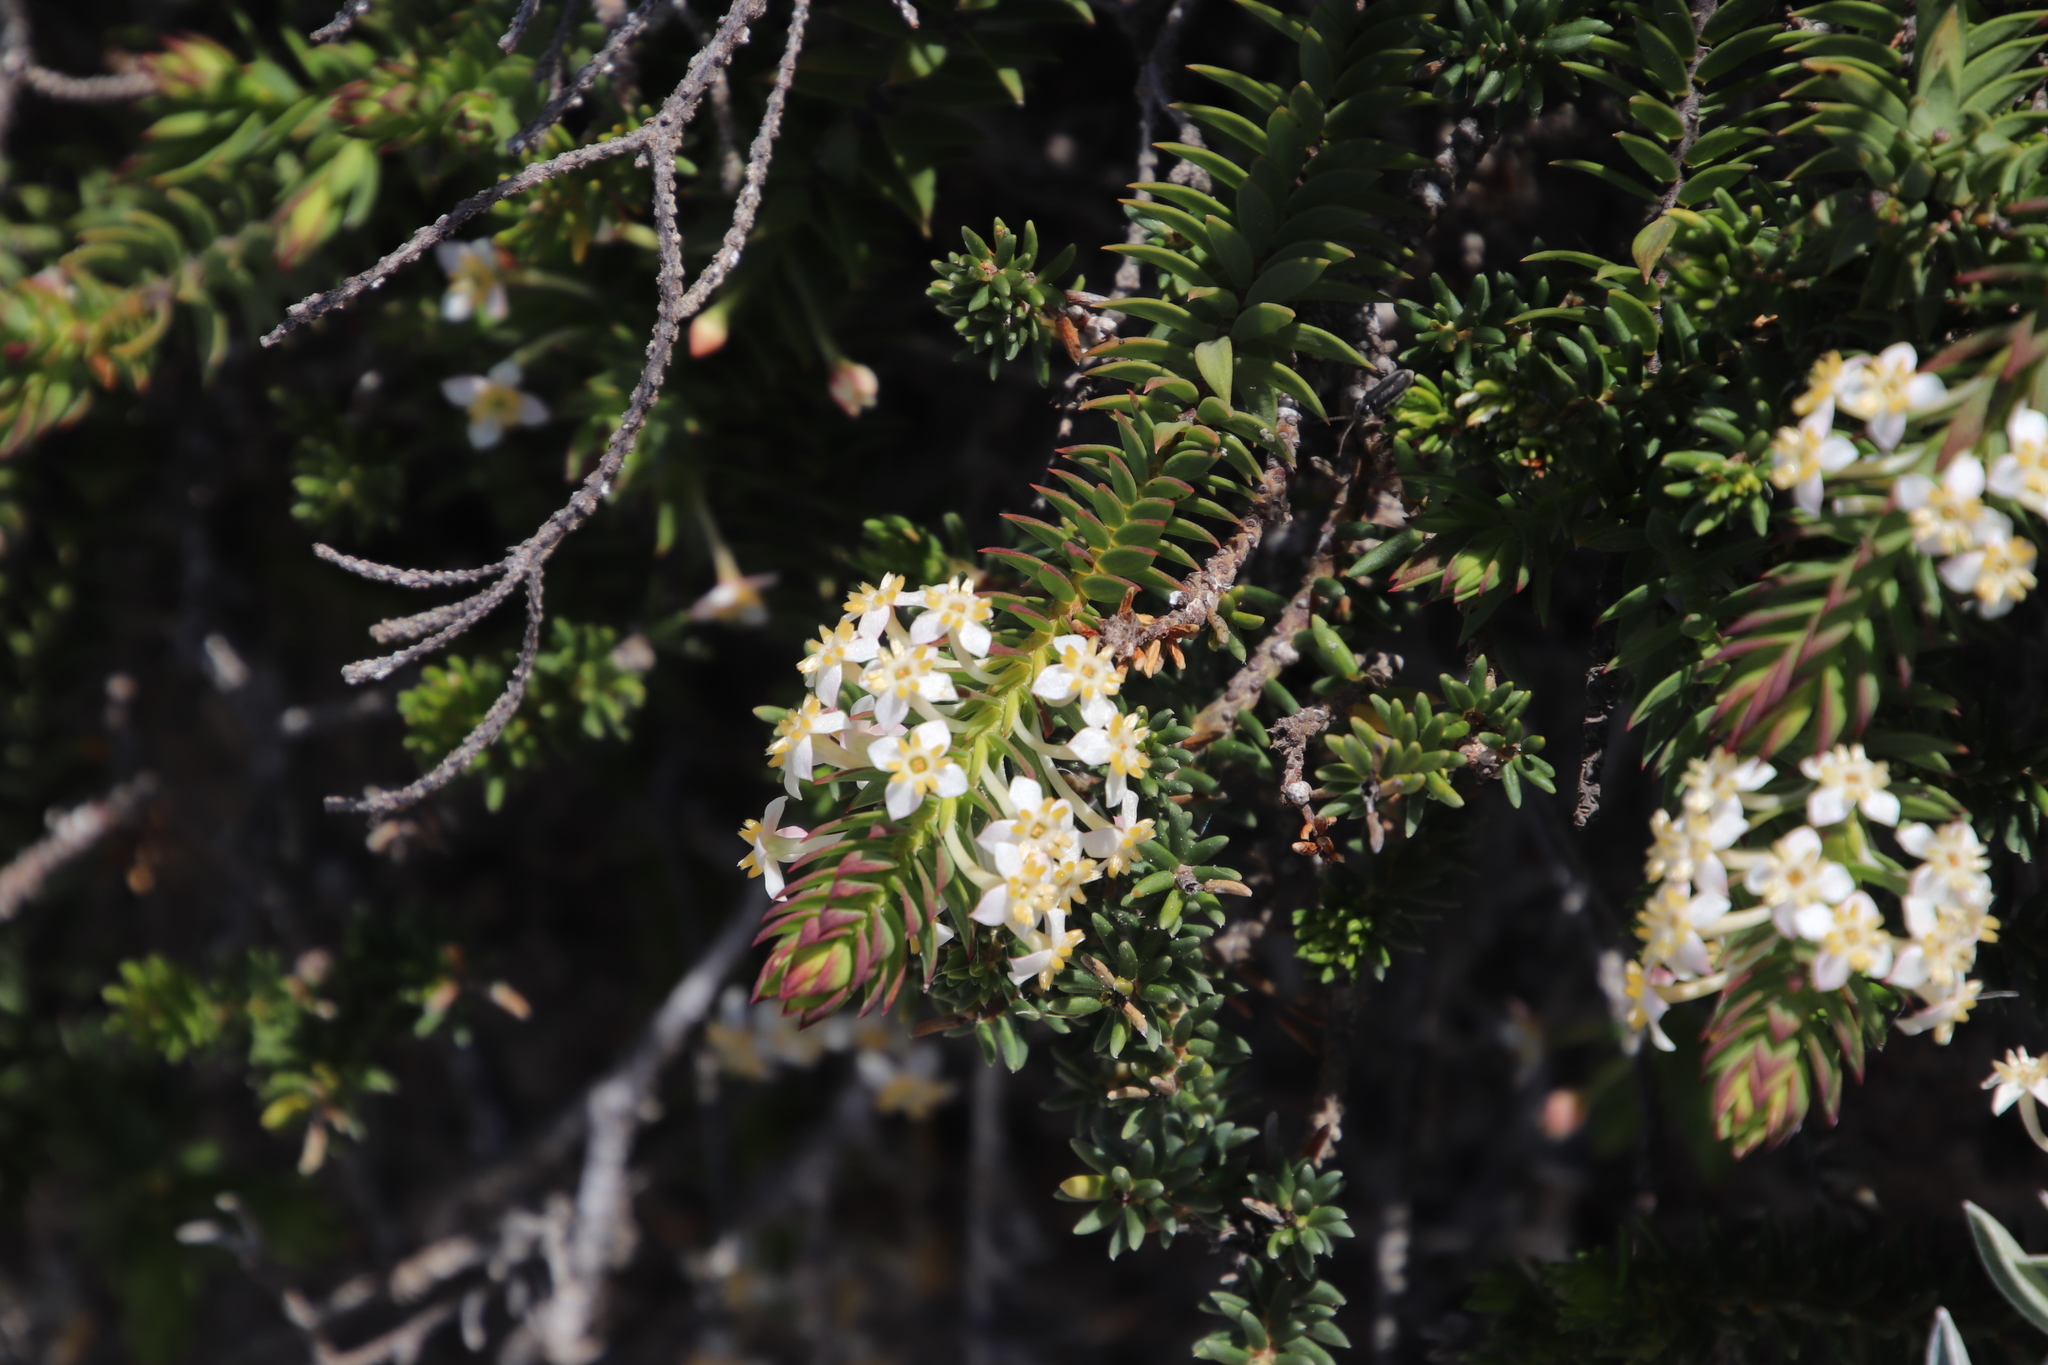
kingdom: Plantae
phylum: Tracheophyta
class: Magnoliopsida
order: Malvales
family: Thymelaeaceae
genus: Struthiola
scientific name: Struthiola salteri
